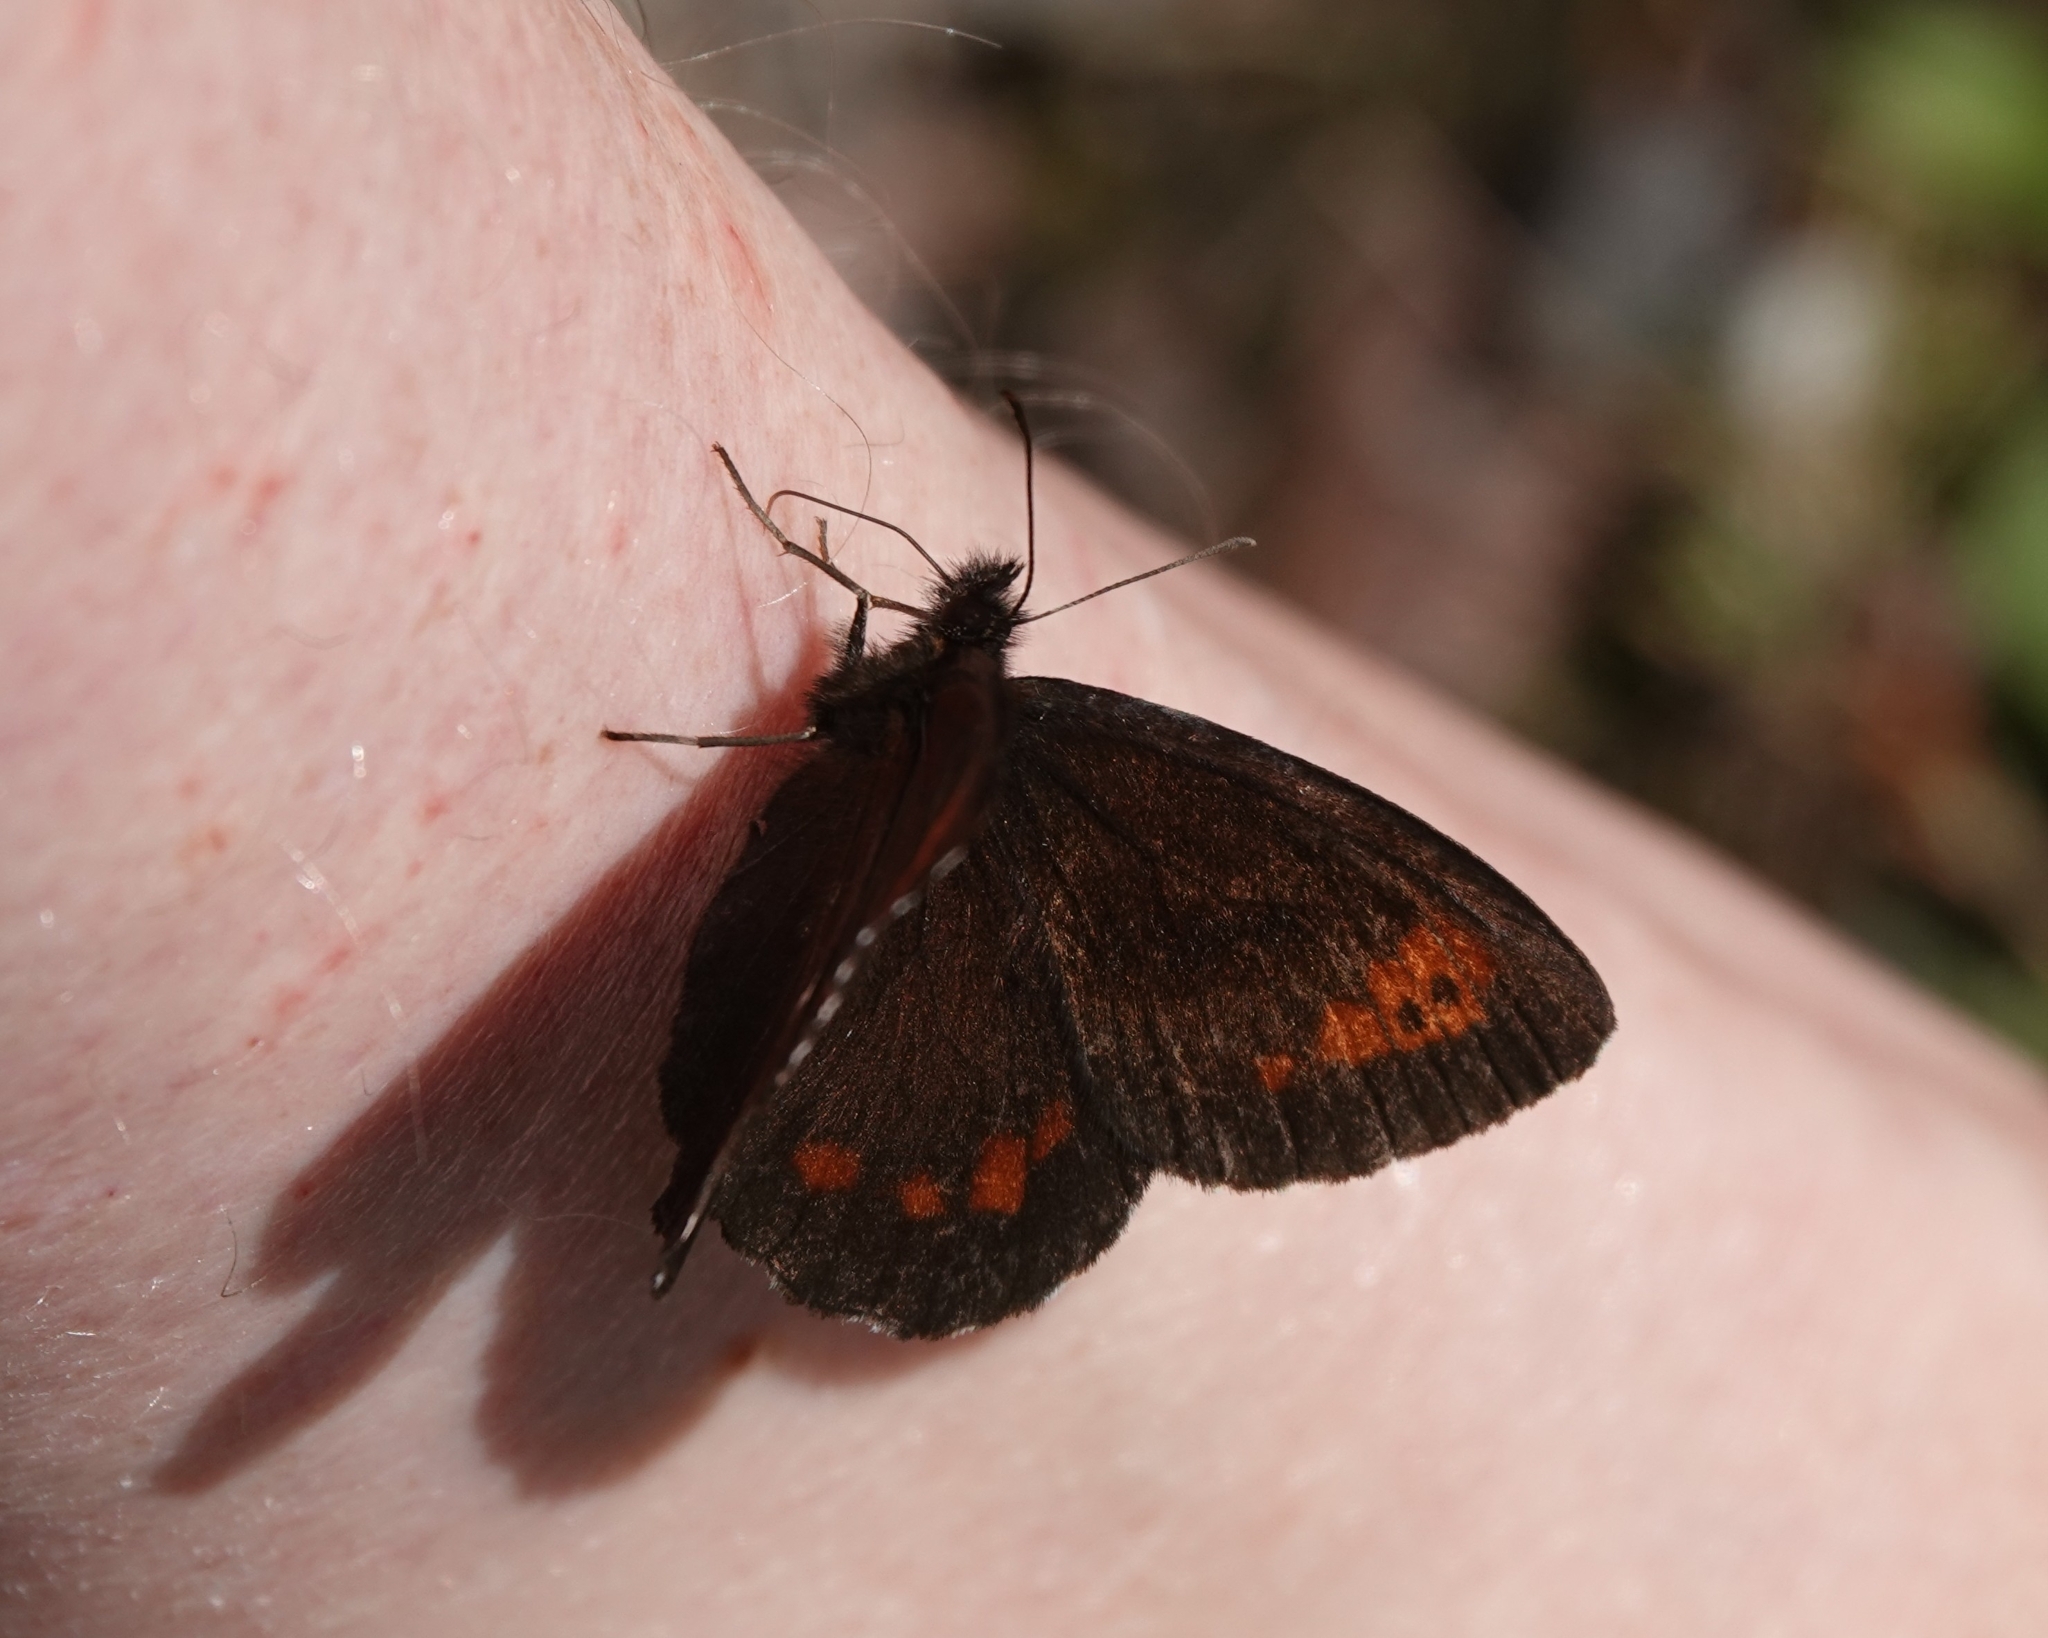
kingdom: Animalia
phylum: Arthropoda
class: Insecta
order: Lepidoptera
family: Nymphalidae
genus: Erebia
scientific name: Erebia ligea
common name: Arran brown
